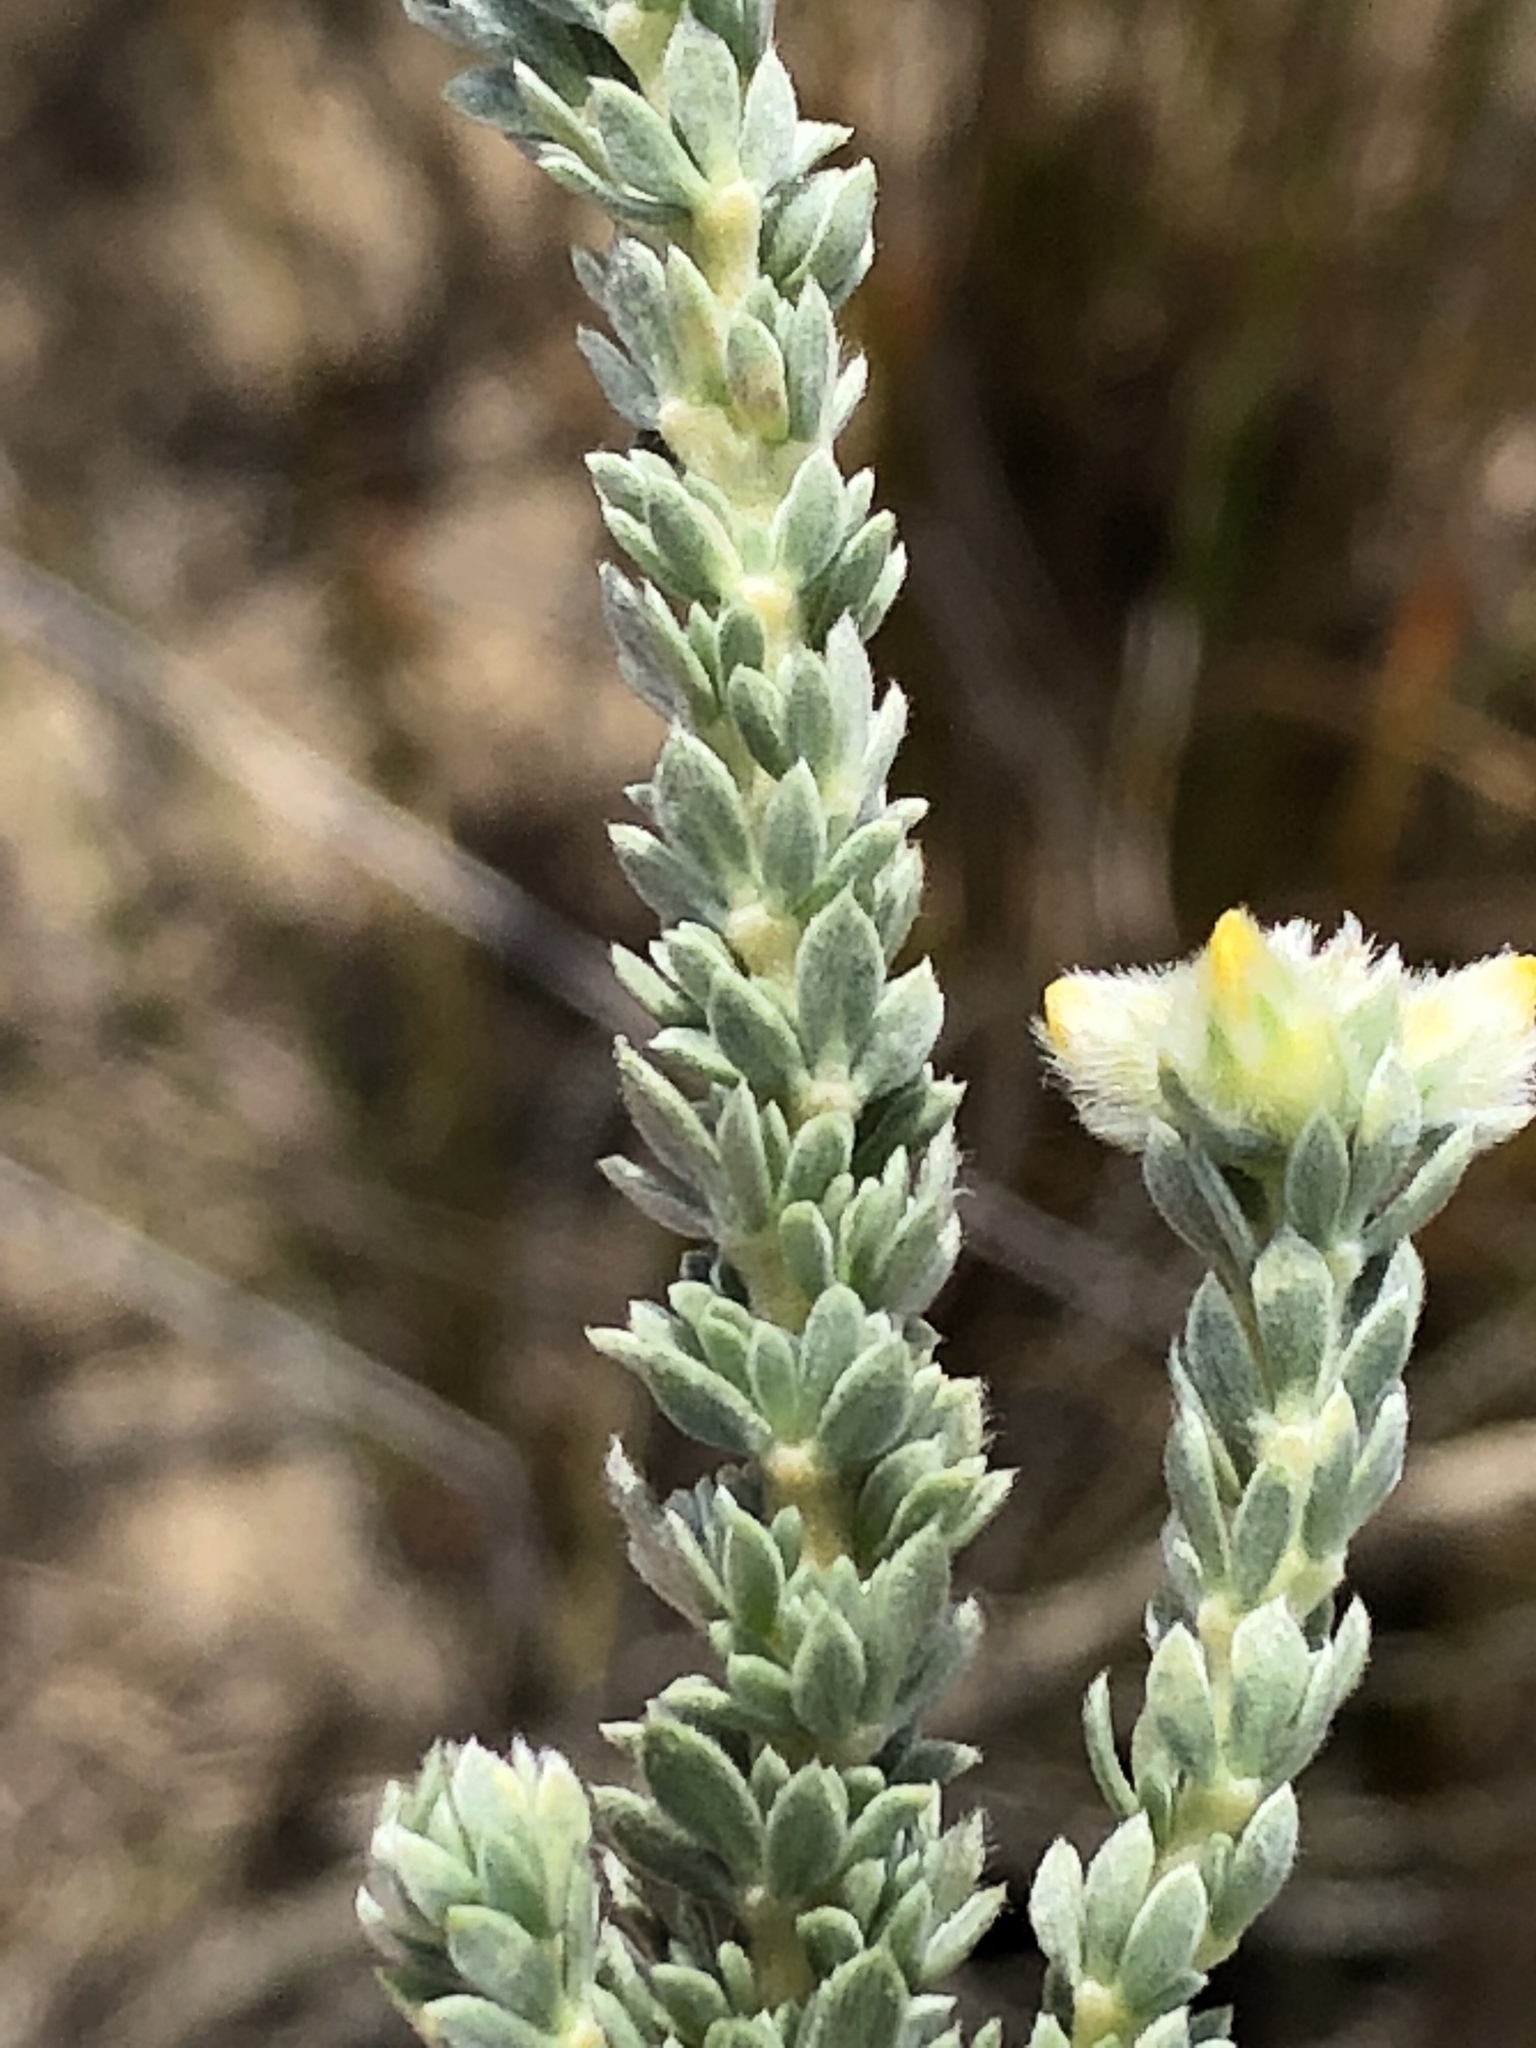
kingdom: Plantae
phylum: Tracheophyta
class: Magnoliopsida
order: Fabales
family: Fabaceae
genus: Aspalathus
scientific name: Aspalathus sericea
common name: Silky pea
